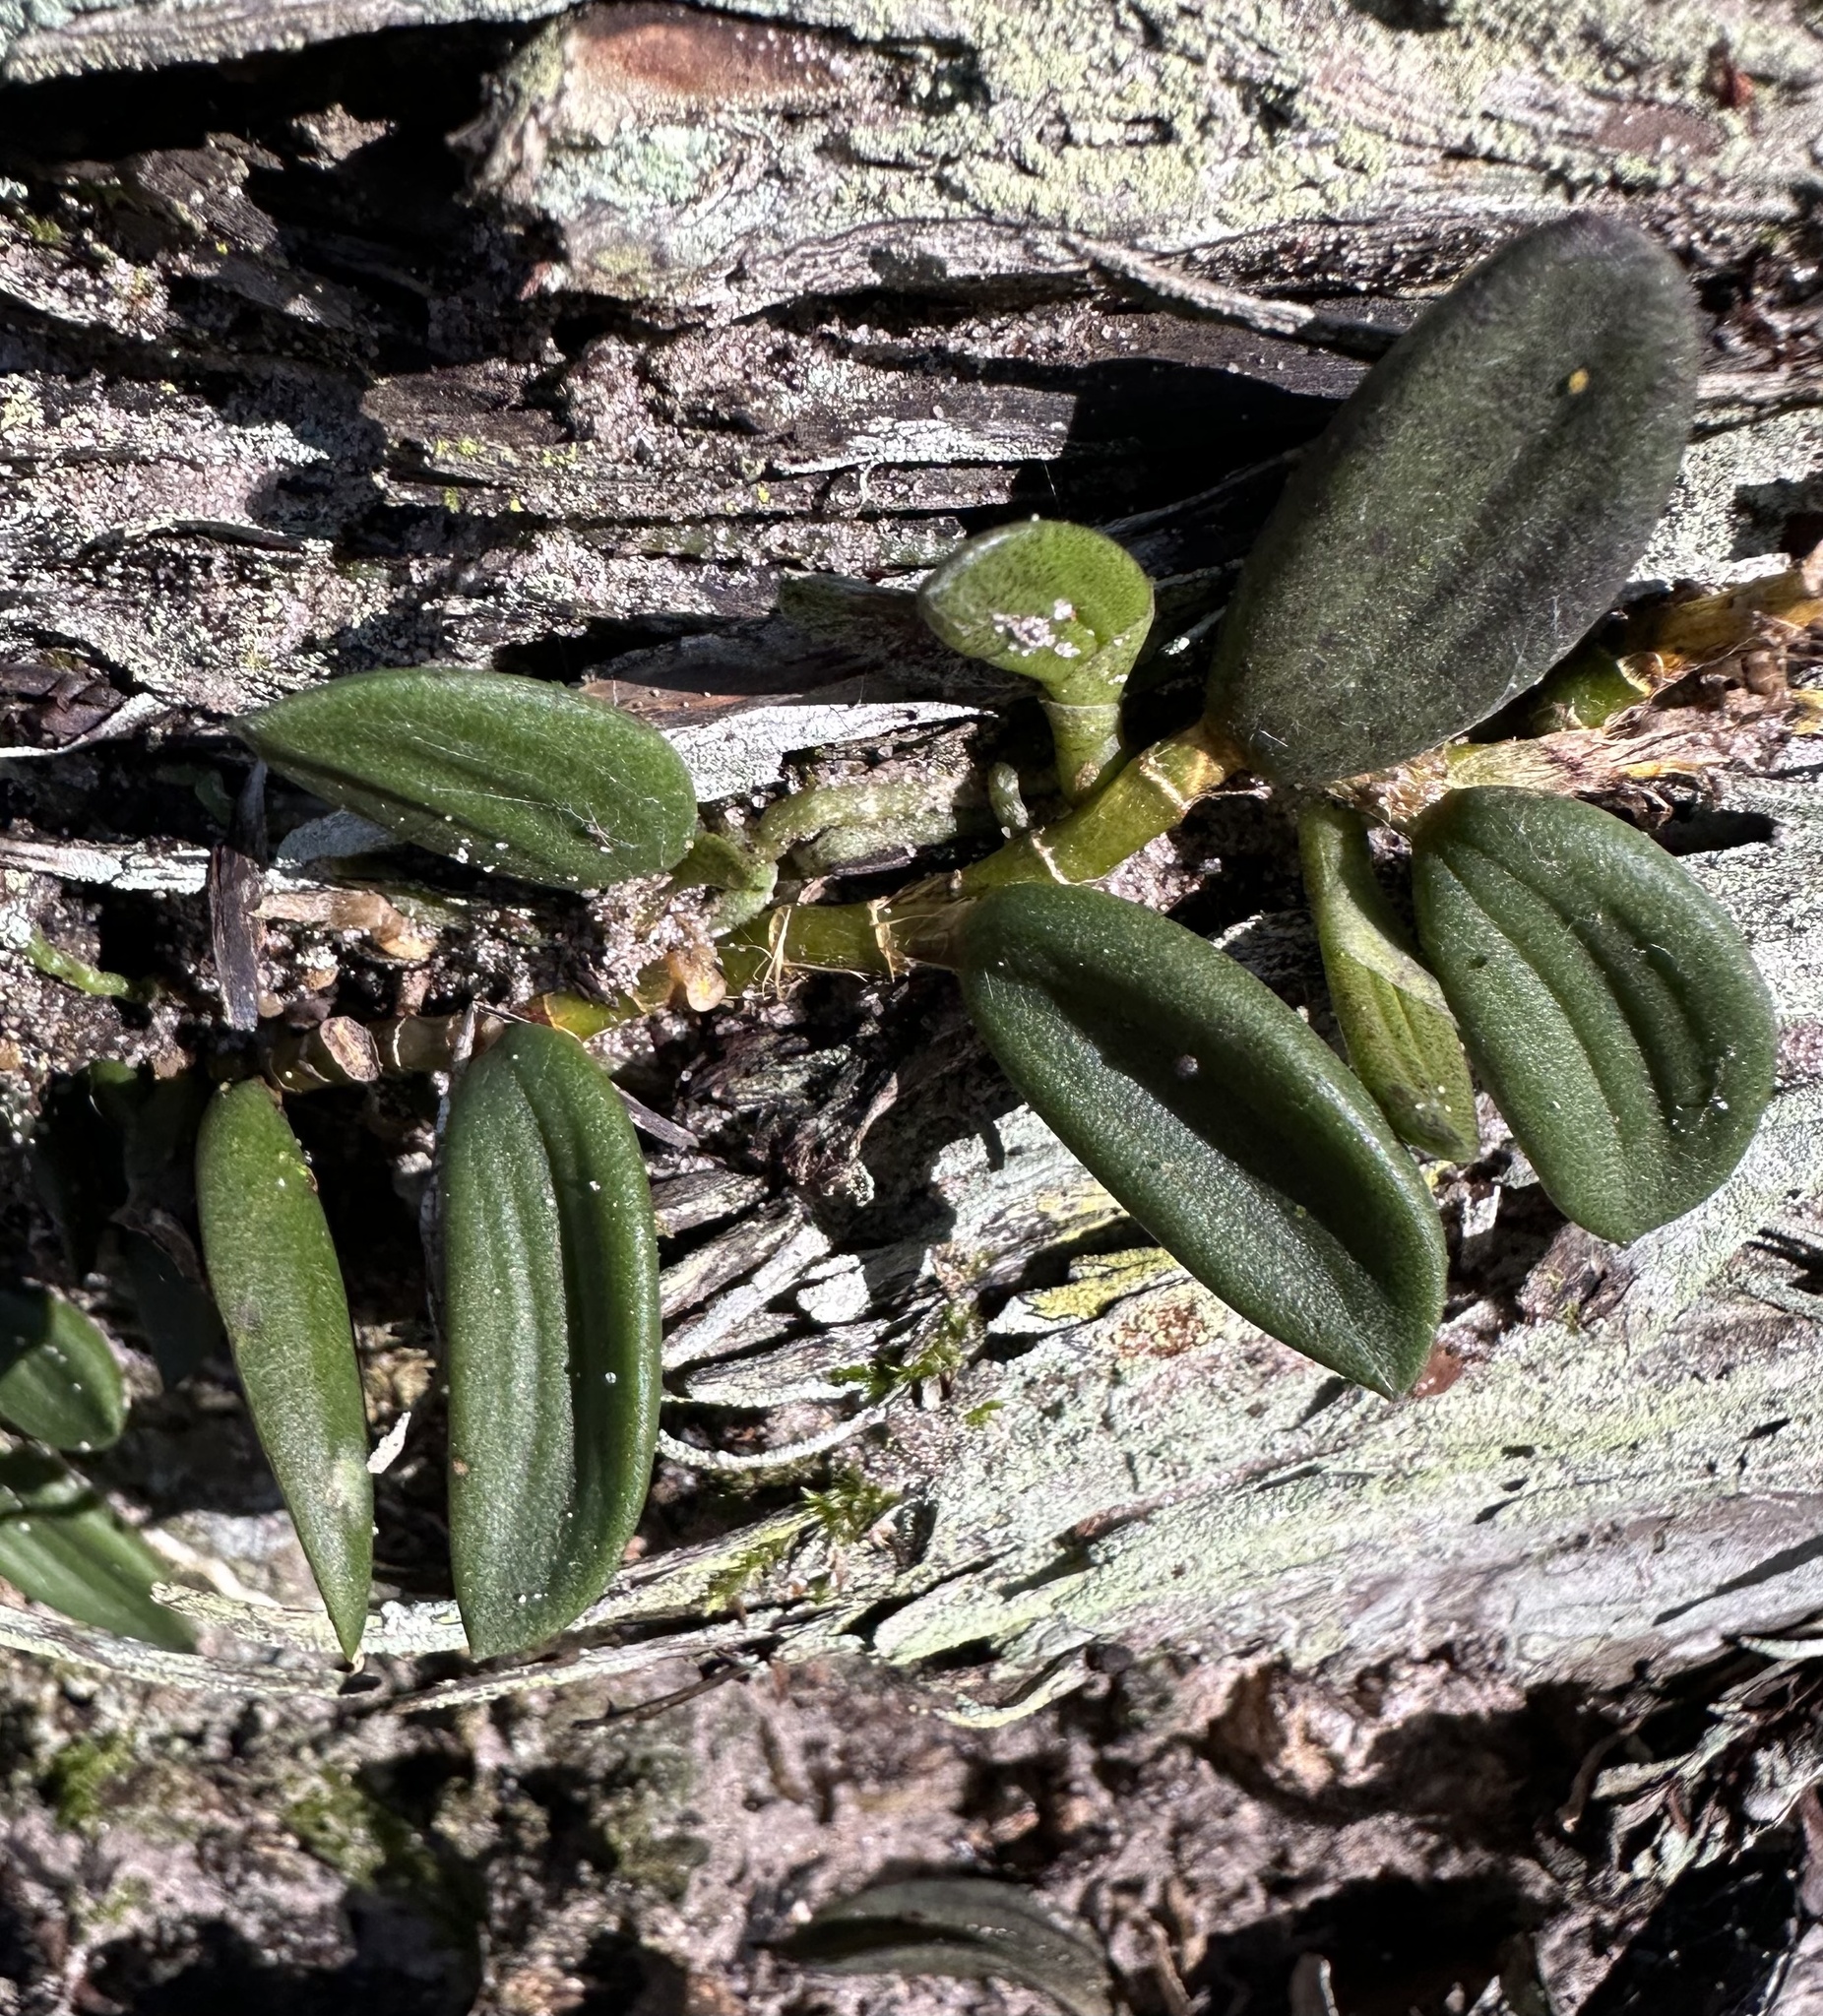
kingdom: Plantae
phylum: Tracheophyta
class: Liliopsida
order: Asparagales
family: Orchidaceae
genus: Dendrobium
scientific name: Dendrobium linguiforme
